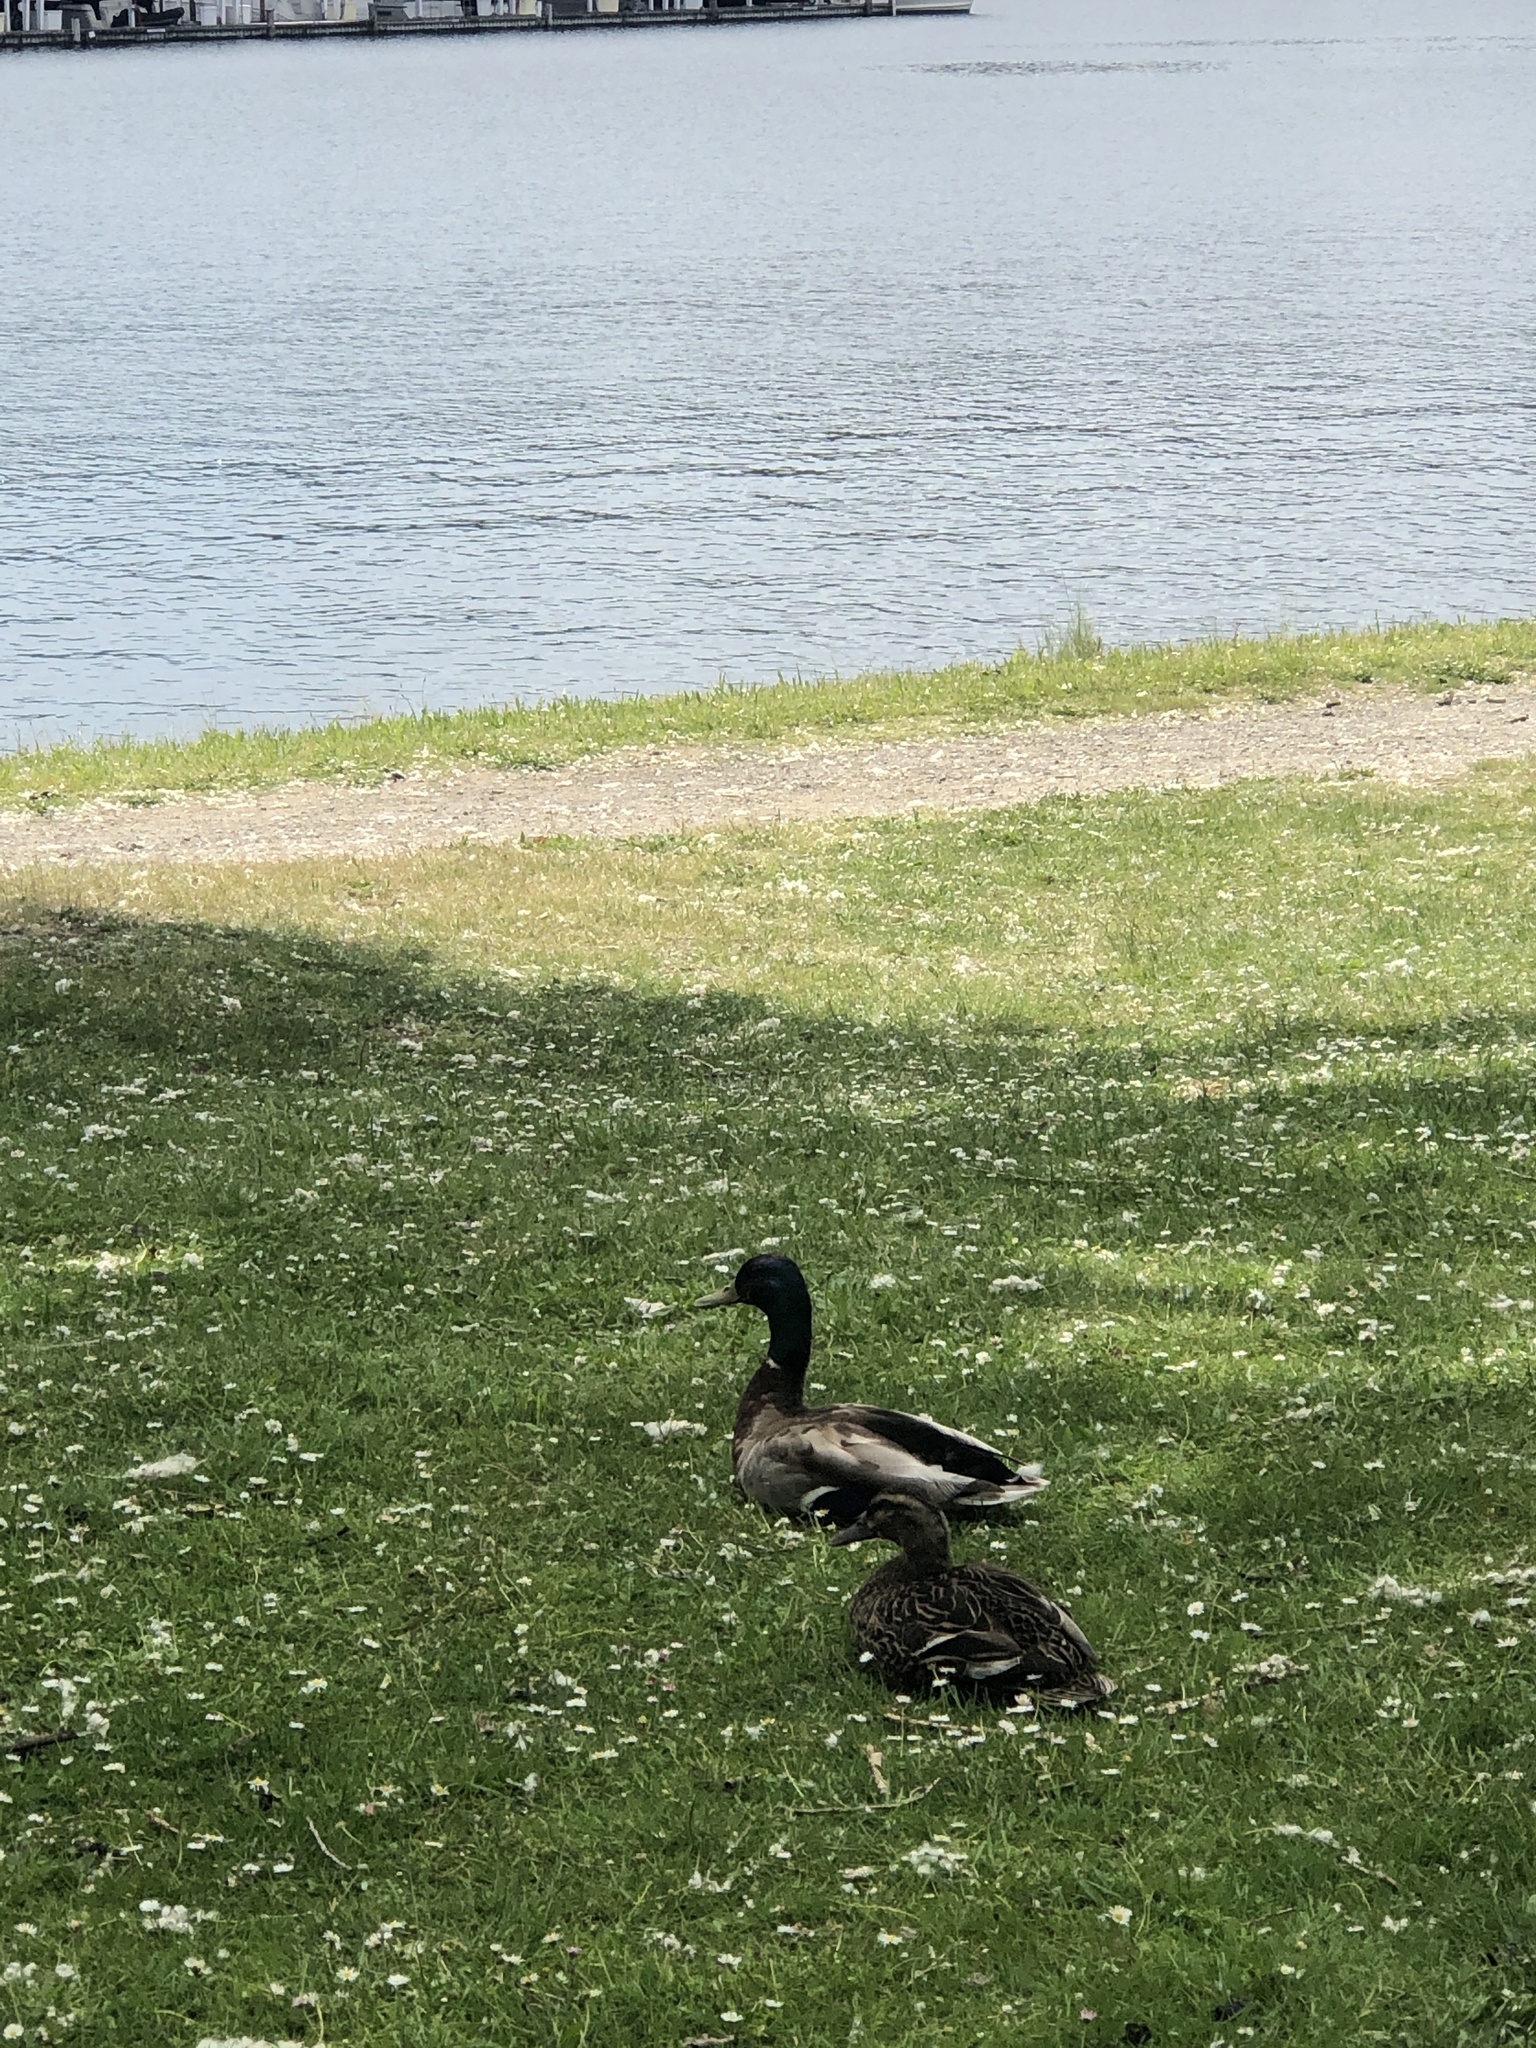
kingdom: Animalia
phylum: Chordata
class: Aves
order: Anseriformes
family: Anatidae
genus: Anas
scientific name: Anas platyrhynchos
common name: Mallard
